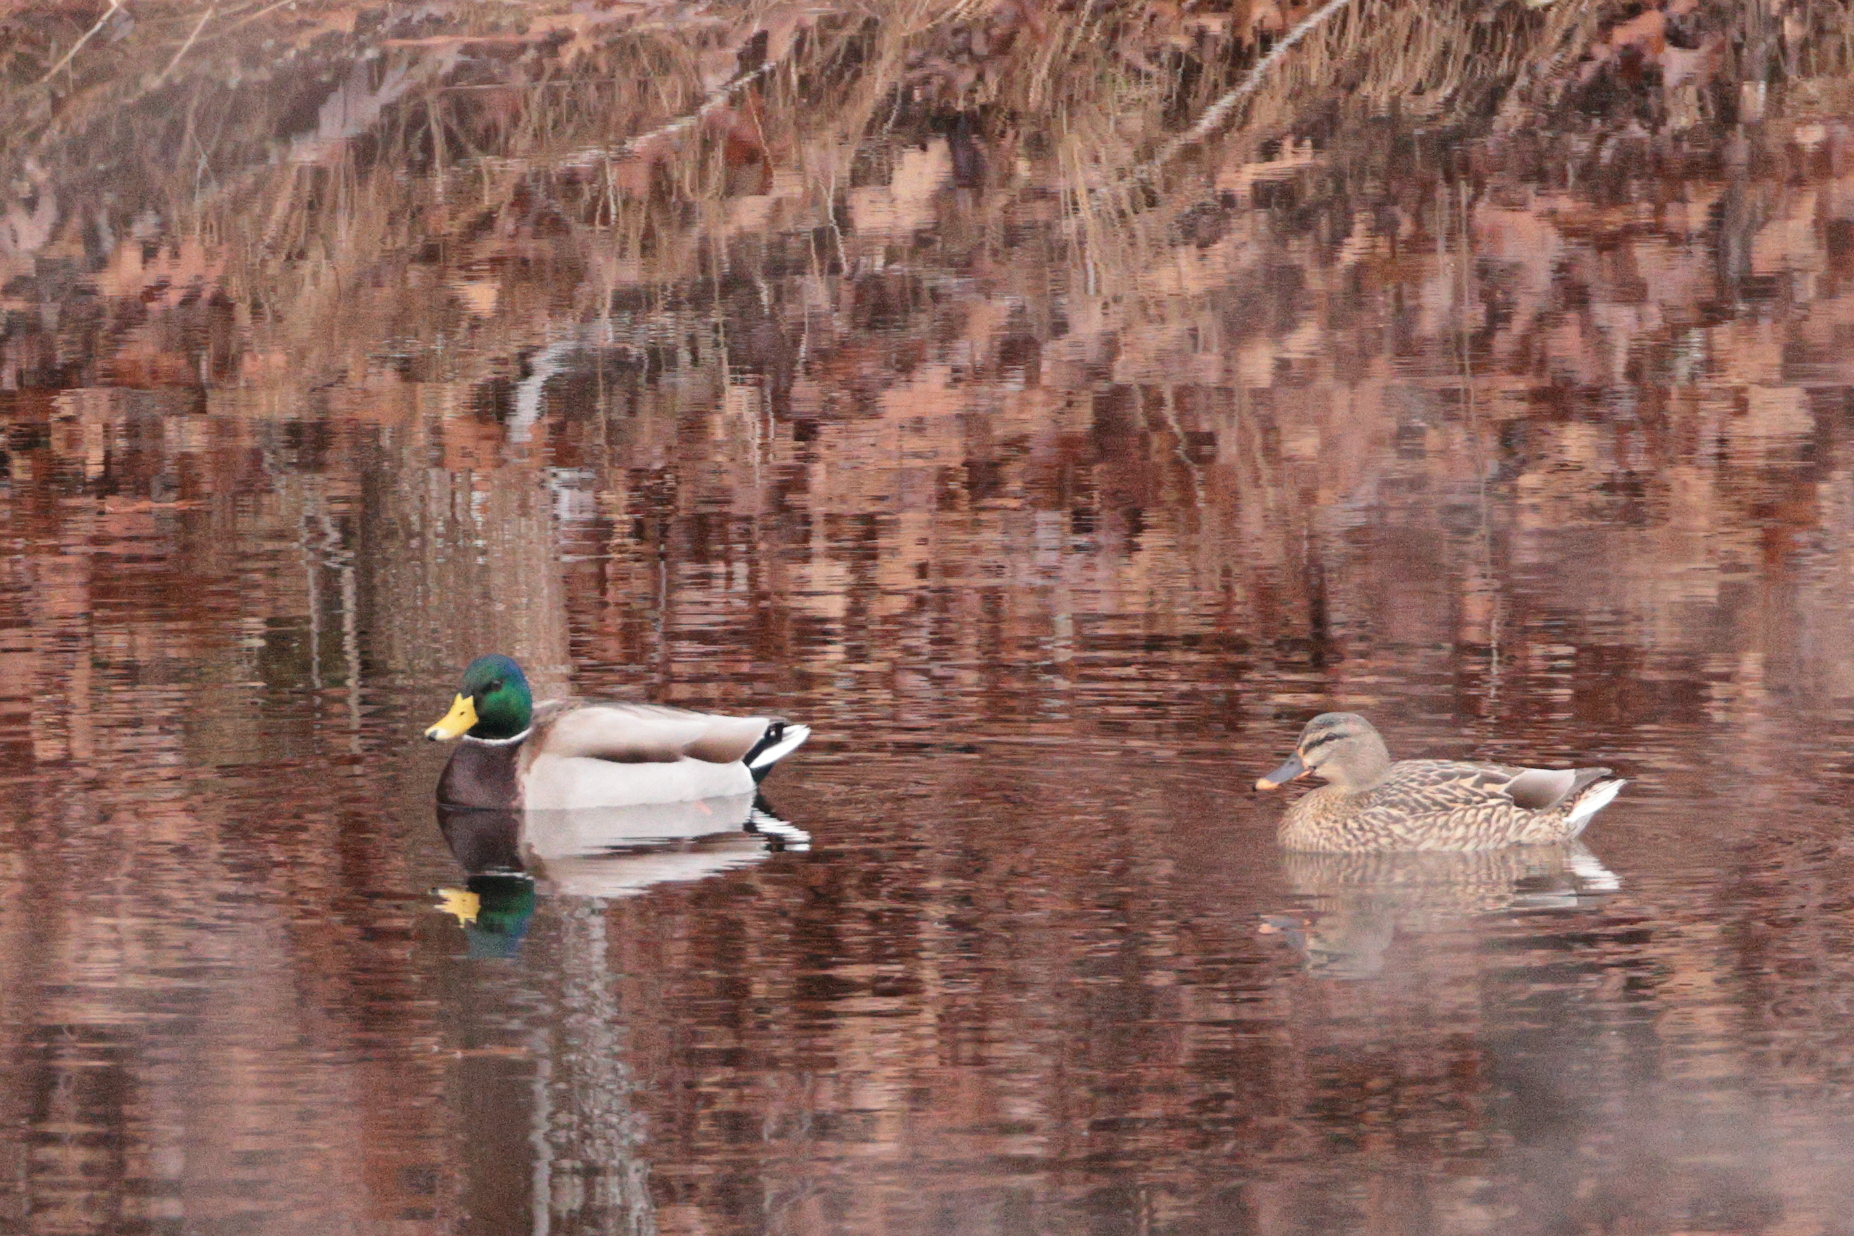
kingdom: Animalia
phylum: Chordata
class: Aves
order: Anseriformes
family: Anatidae
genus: Anas
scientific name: Anas platyrhynchos
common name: Mallard
